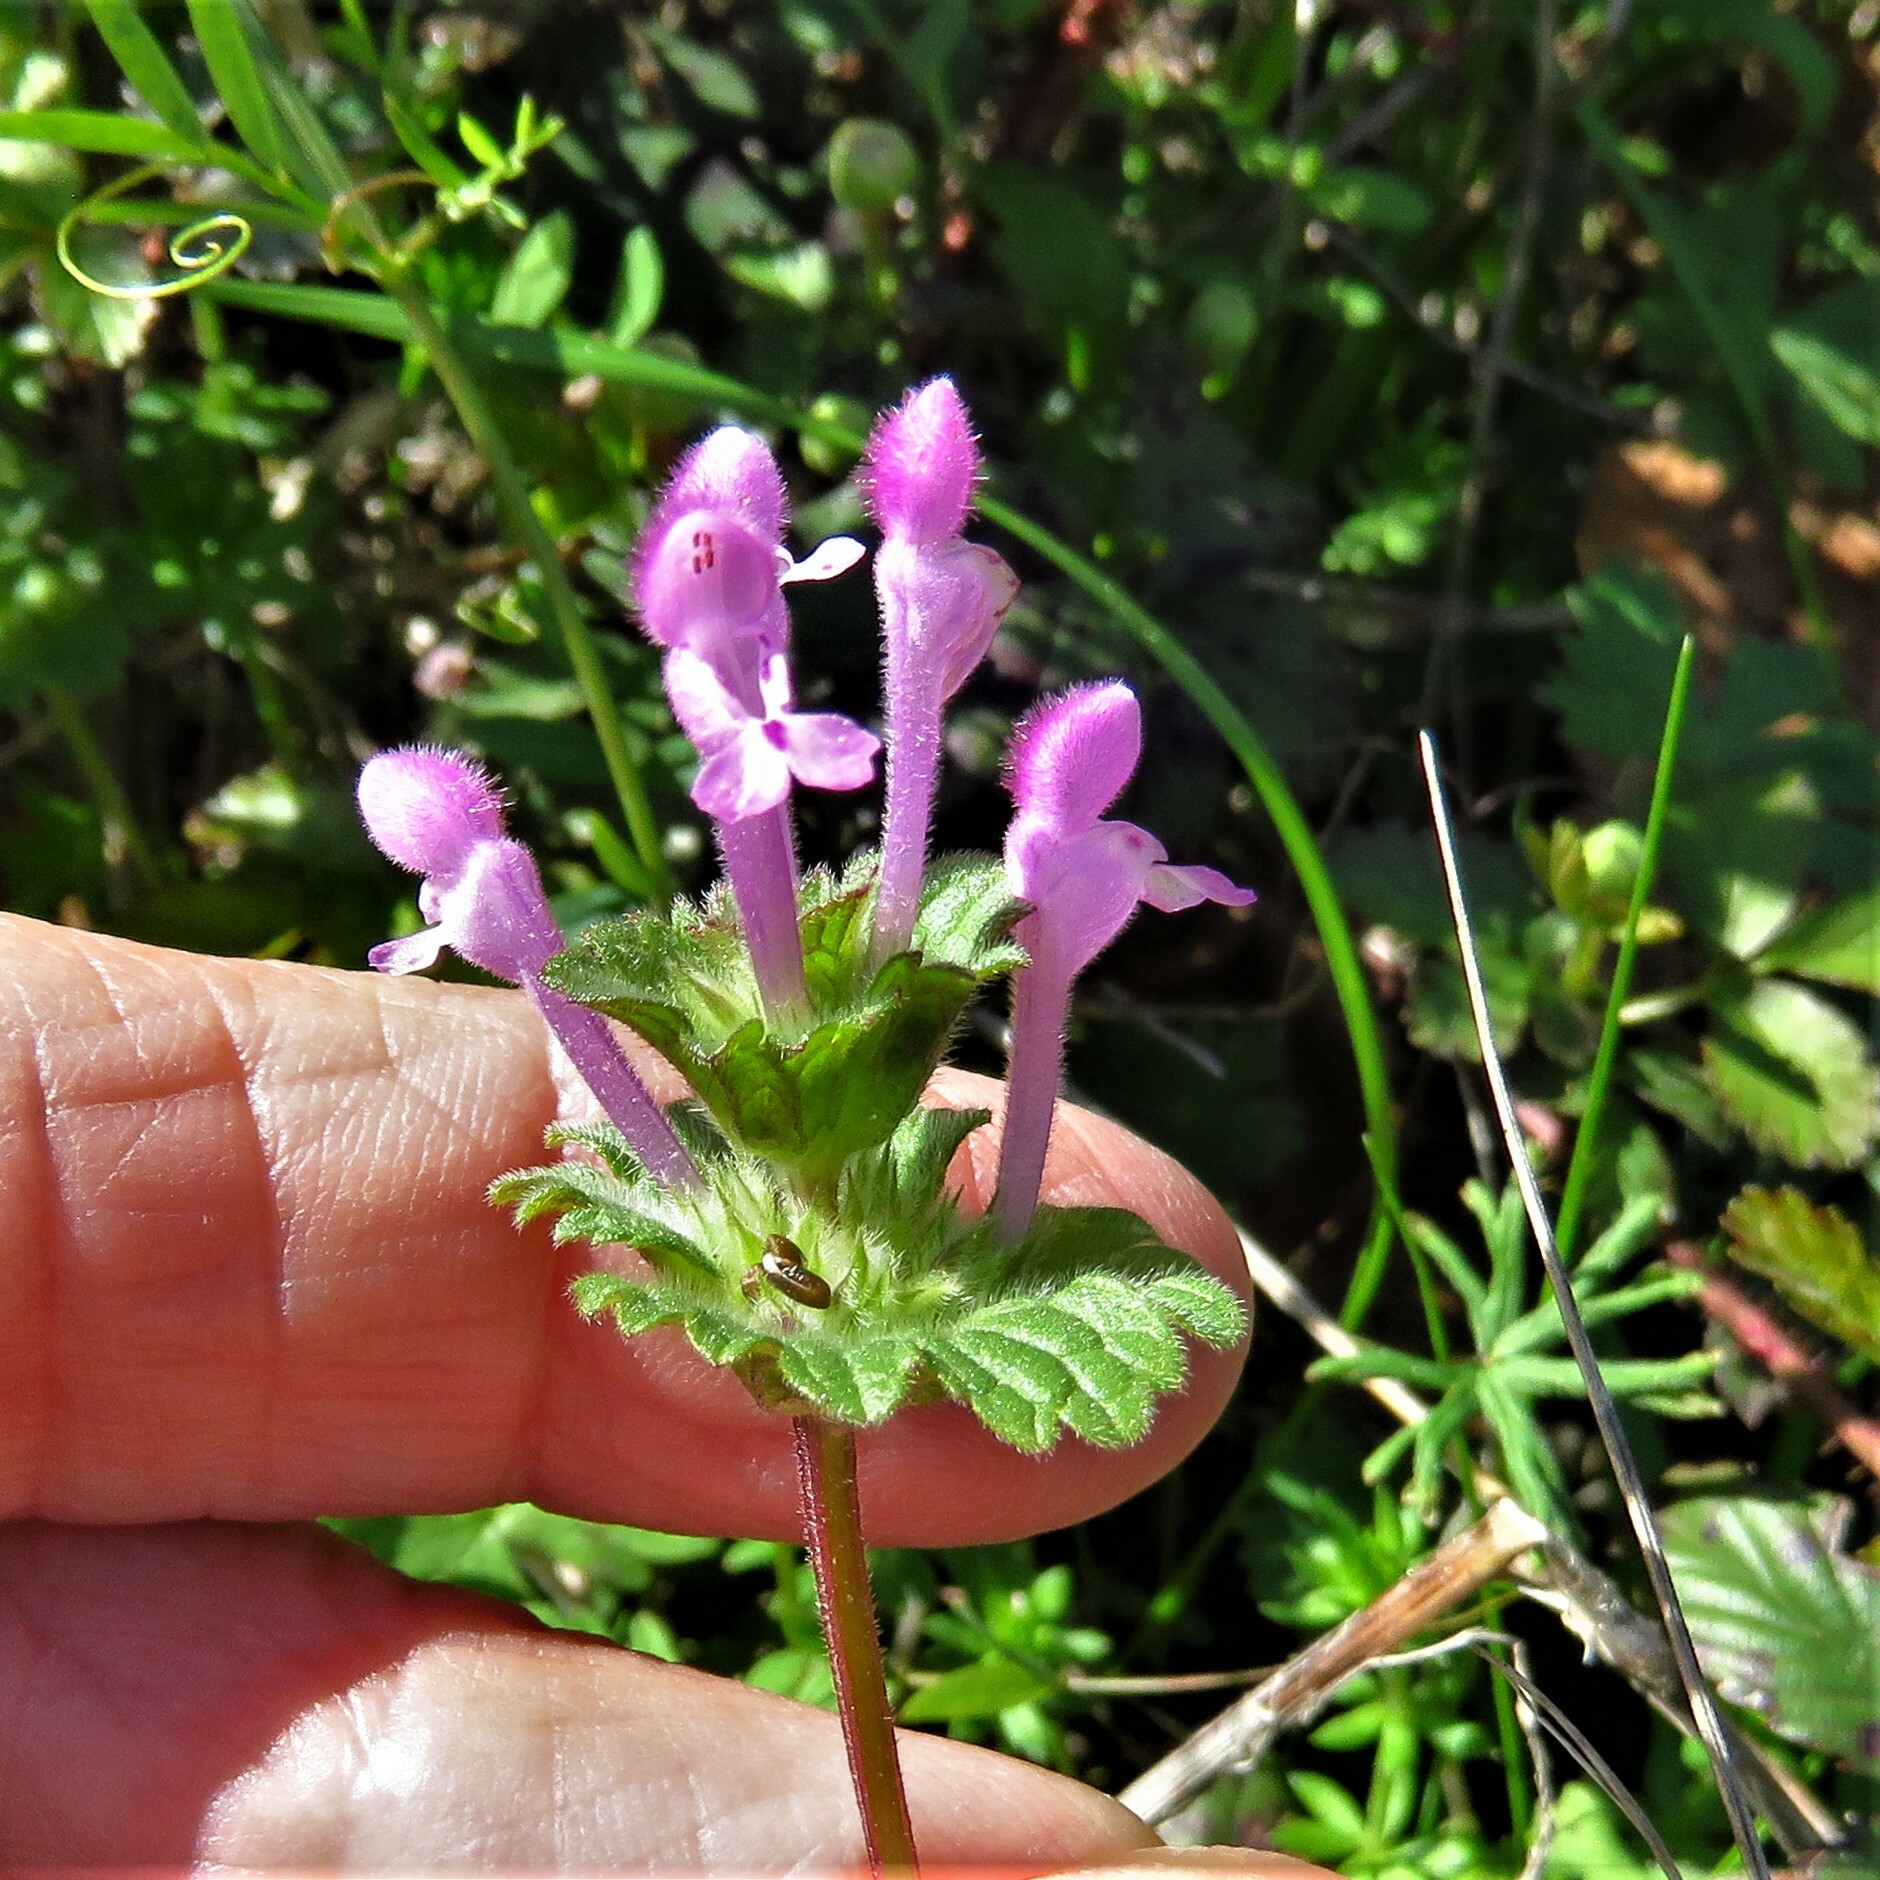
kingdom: Plantae
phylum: Tracheophyta
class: Magnoliopsida
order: Lamiales
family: Lamiaceae
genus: Lamium
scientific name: Lamium amplexicaule
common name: Henbit dead-nettle
